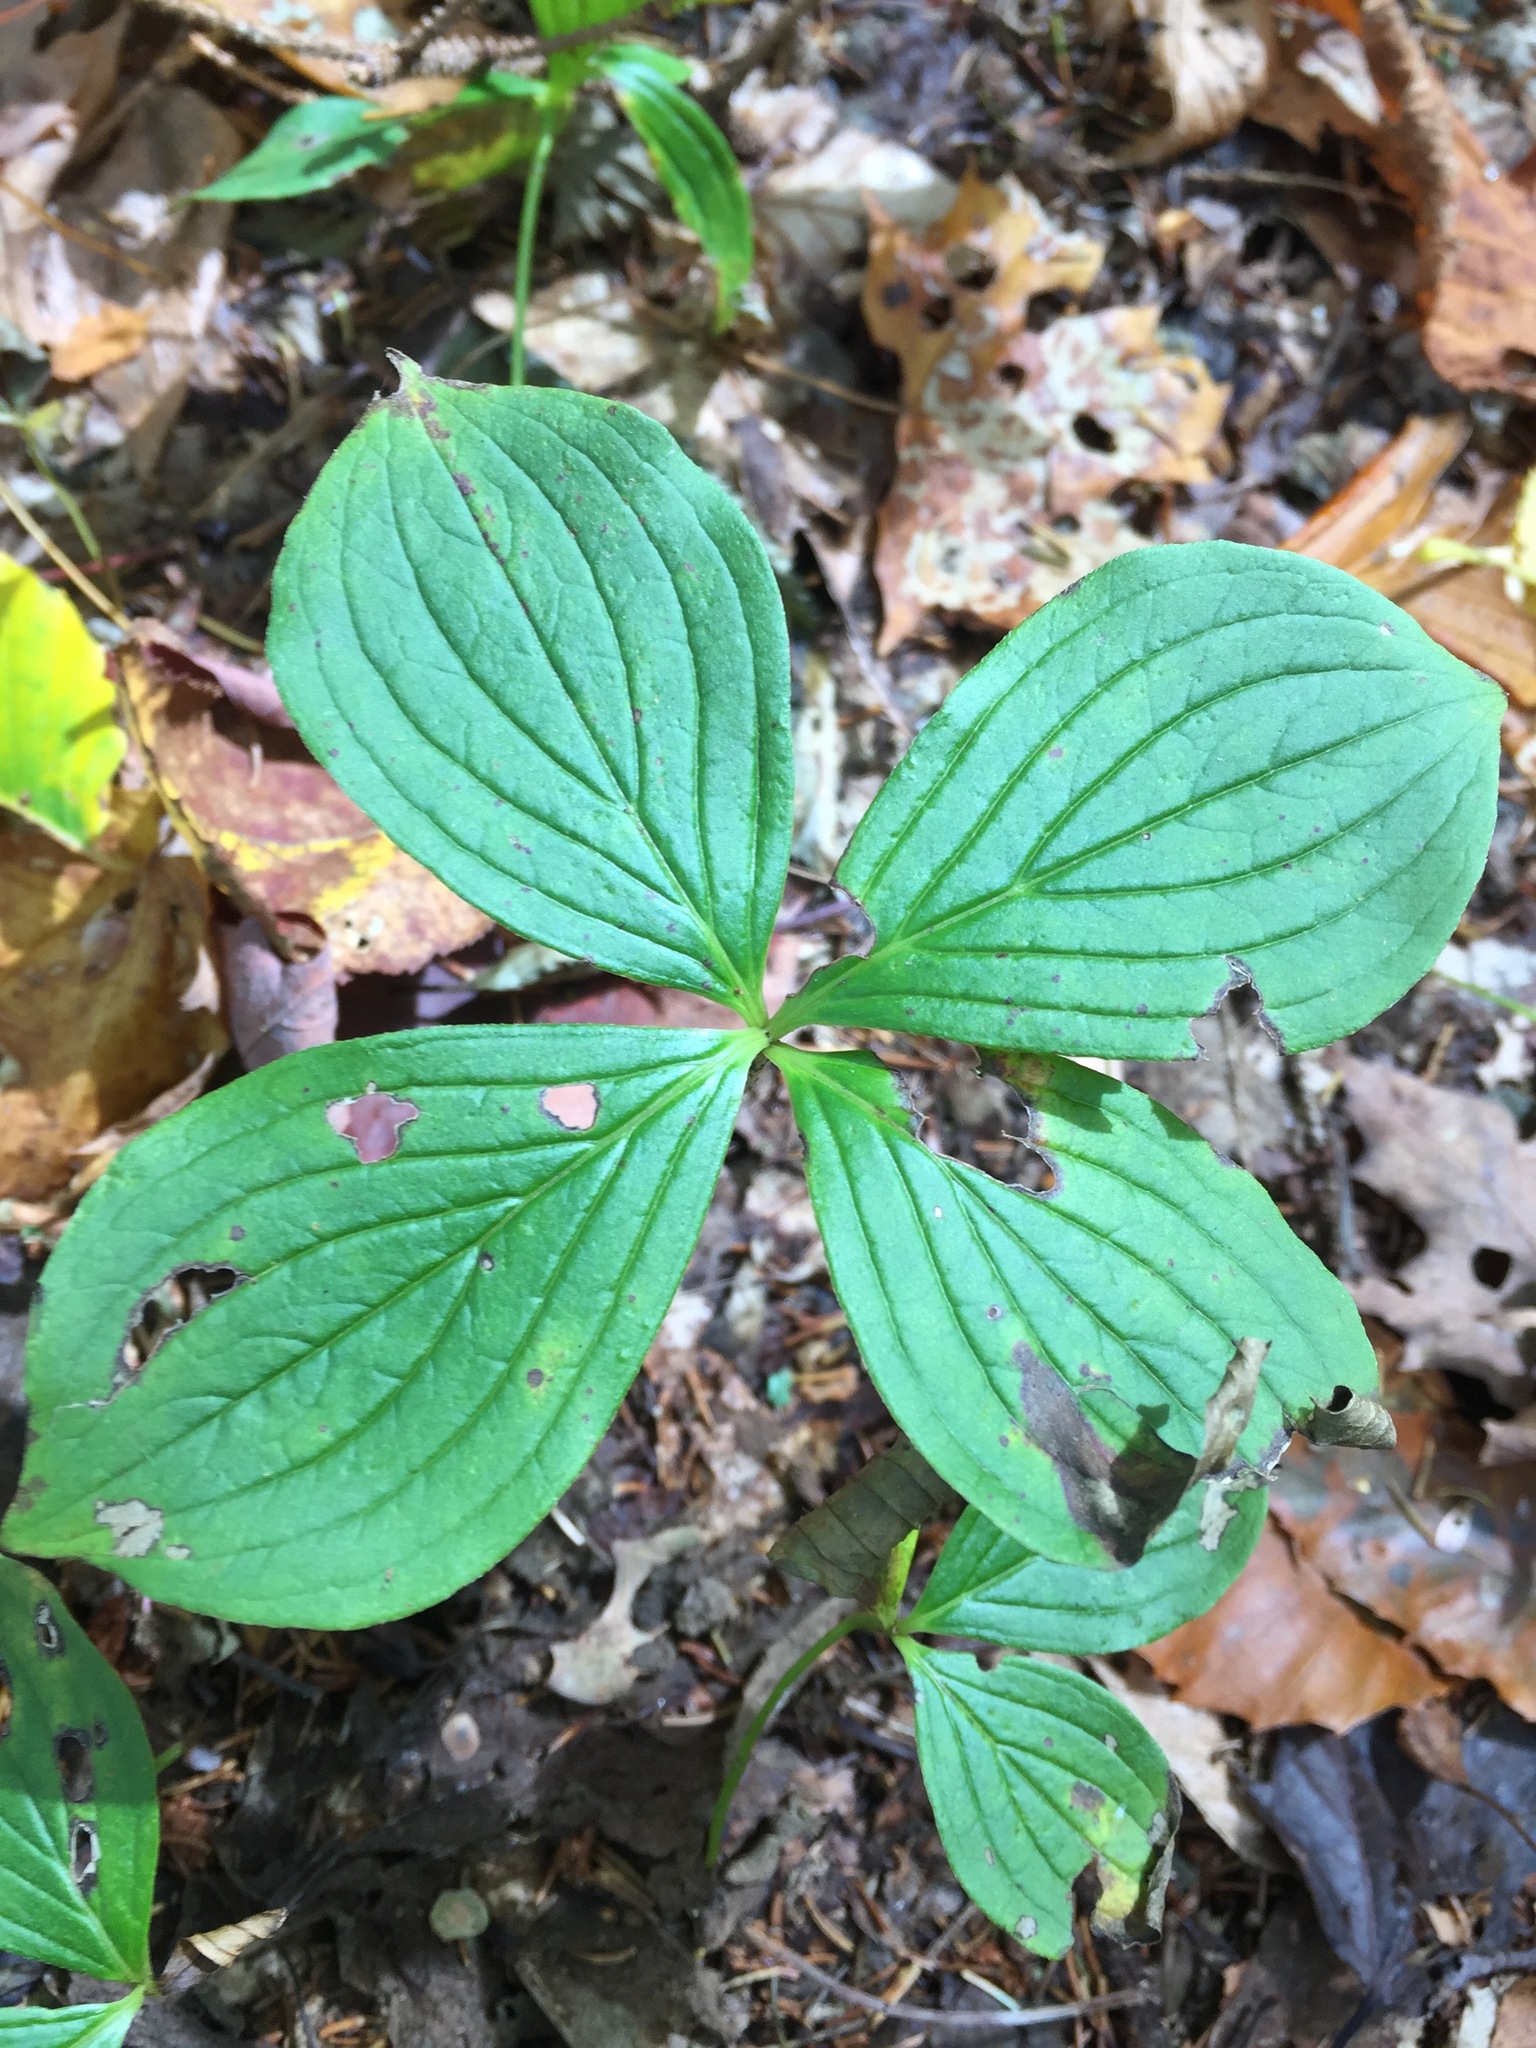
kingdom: Plantae
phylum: Tracheophyta
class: Magnoliopsida
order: Cornales
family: Cornaceae
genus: Cornus
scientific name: Cornus canadensis
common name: Creeping dogwood
